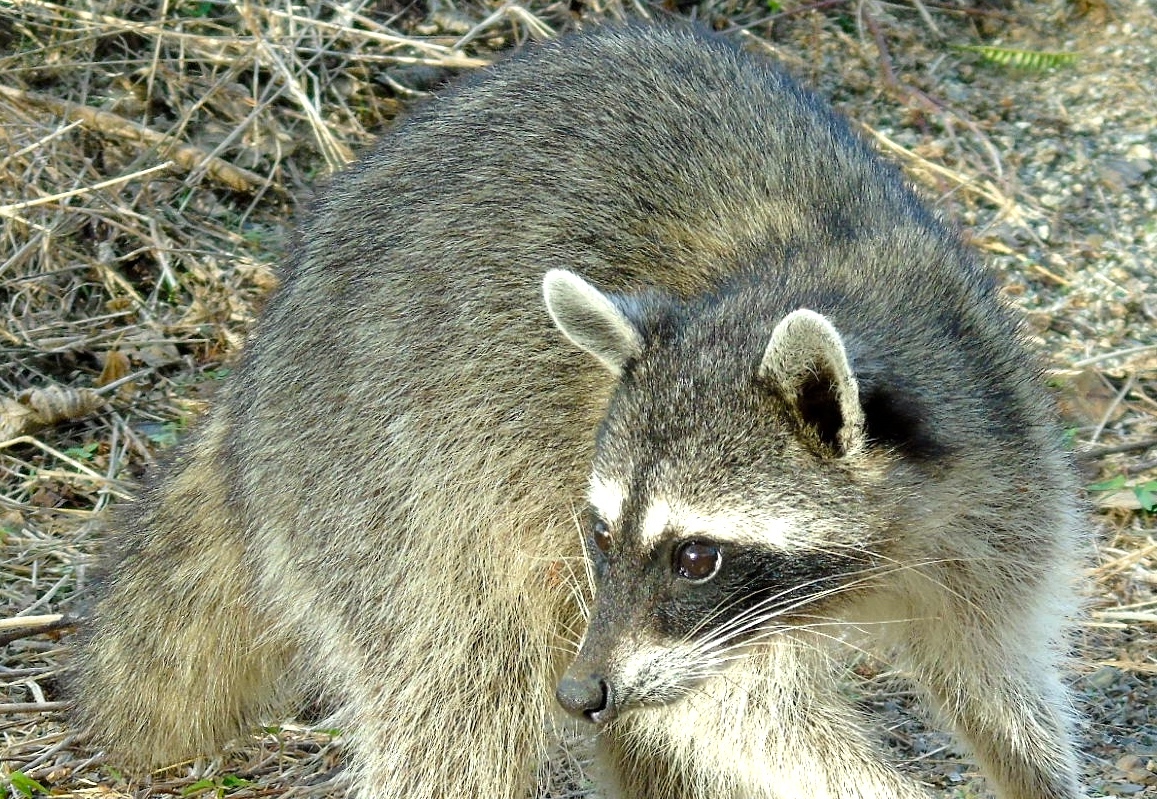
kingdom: Animalia
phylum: Chordata
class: Mammalia
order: Carnivora
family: Procyonidae
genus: Procyon
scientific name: Procyon lotor
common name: Raccoon
